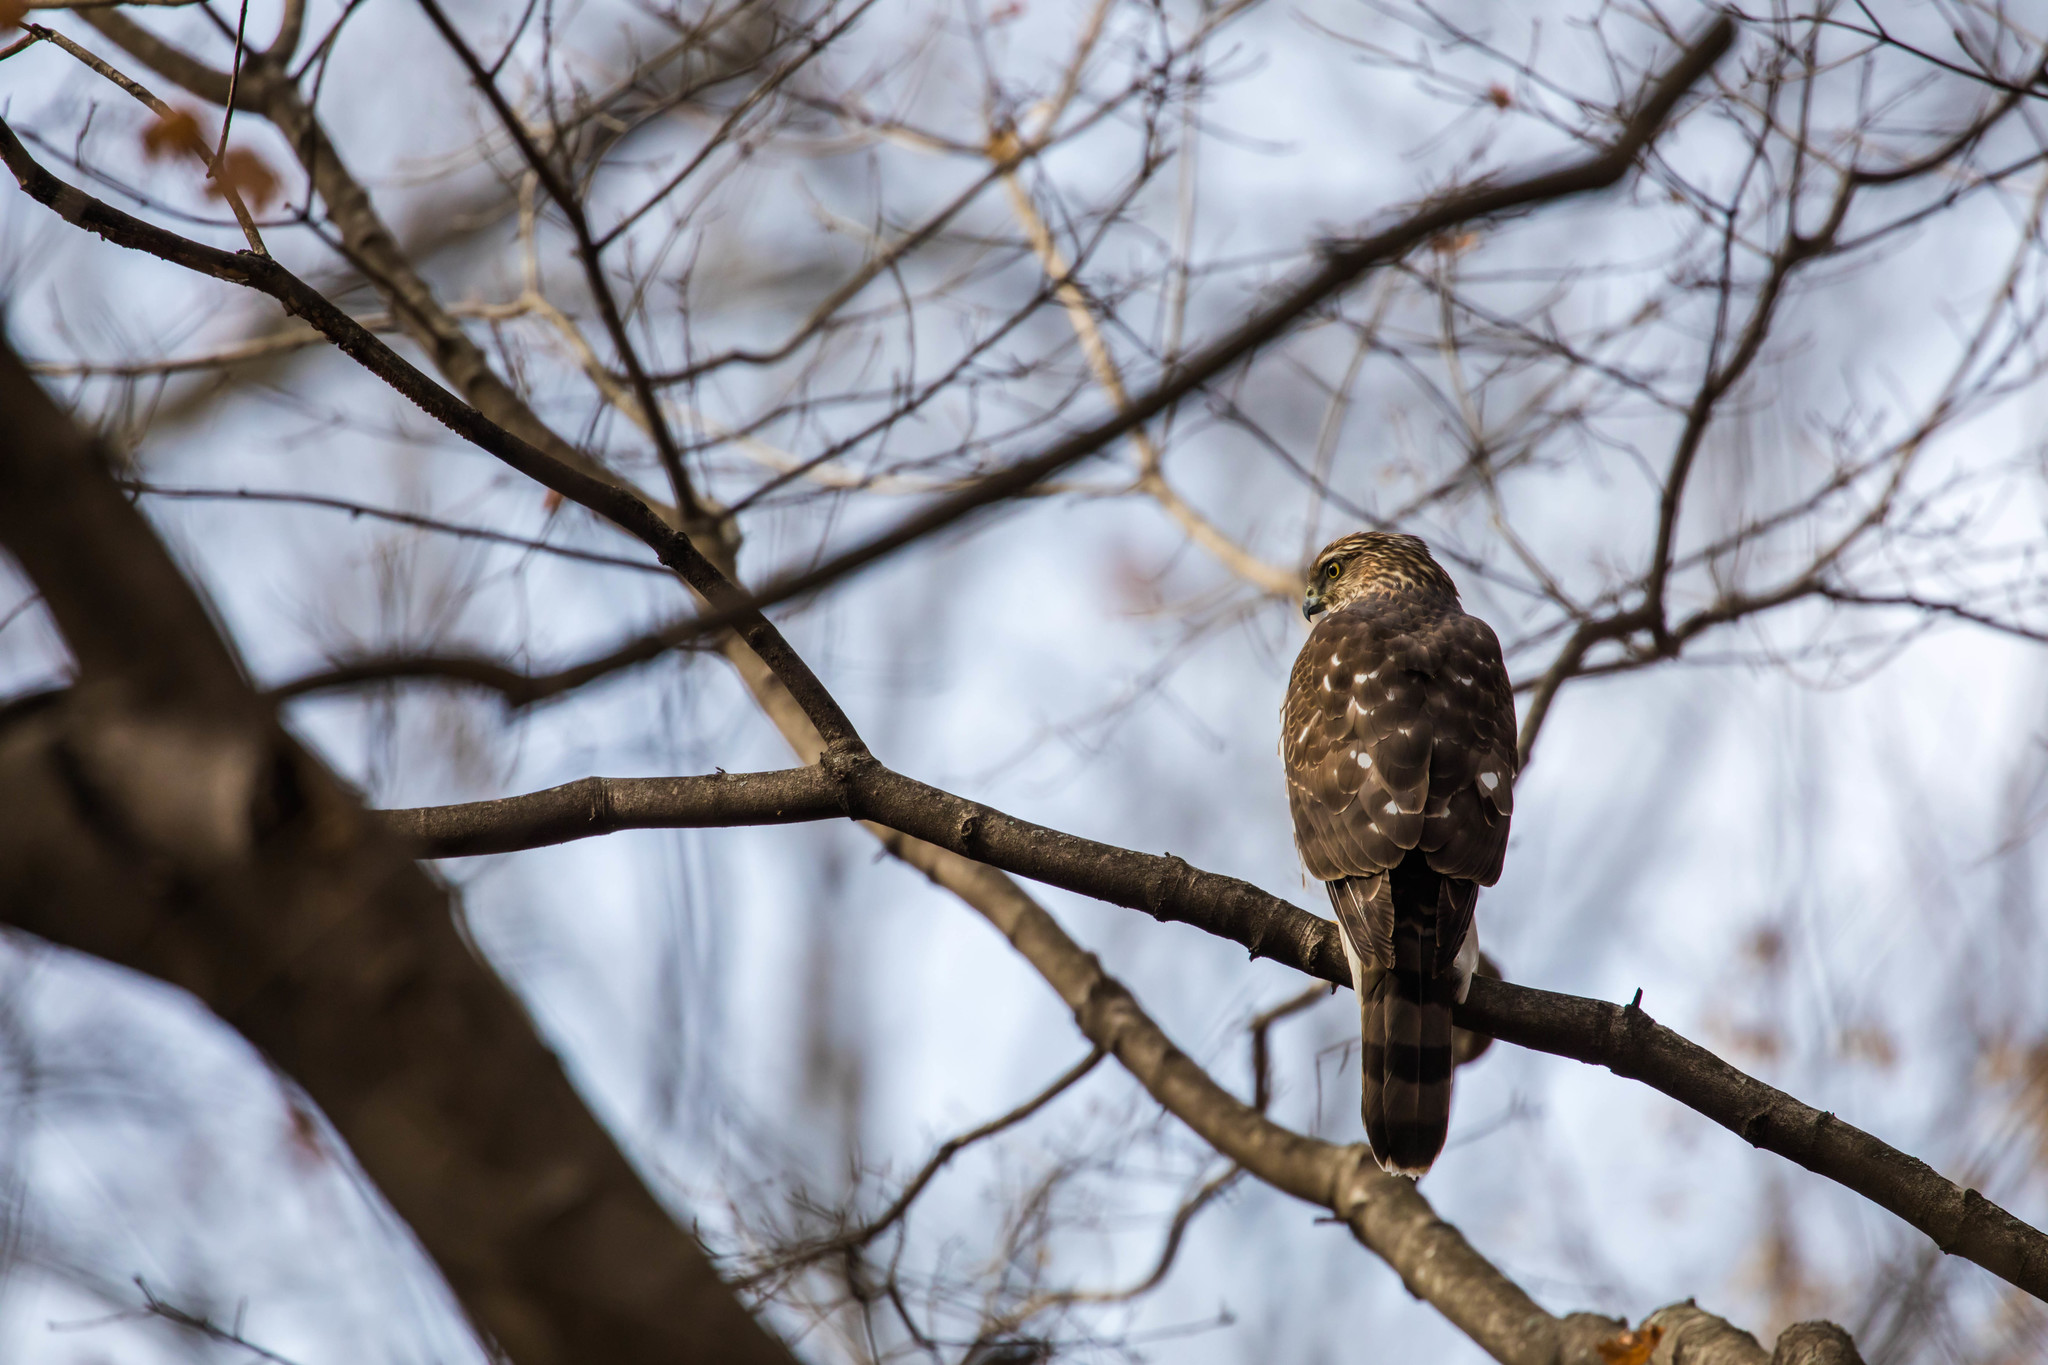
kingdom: Animalia
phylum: Chordata
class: Aves
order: Accipitriformes
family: Accipitridae
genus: Accipiter
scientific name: Accipiter cooperii
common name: Cooper's hawk
